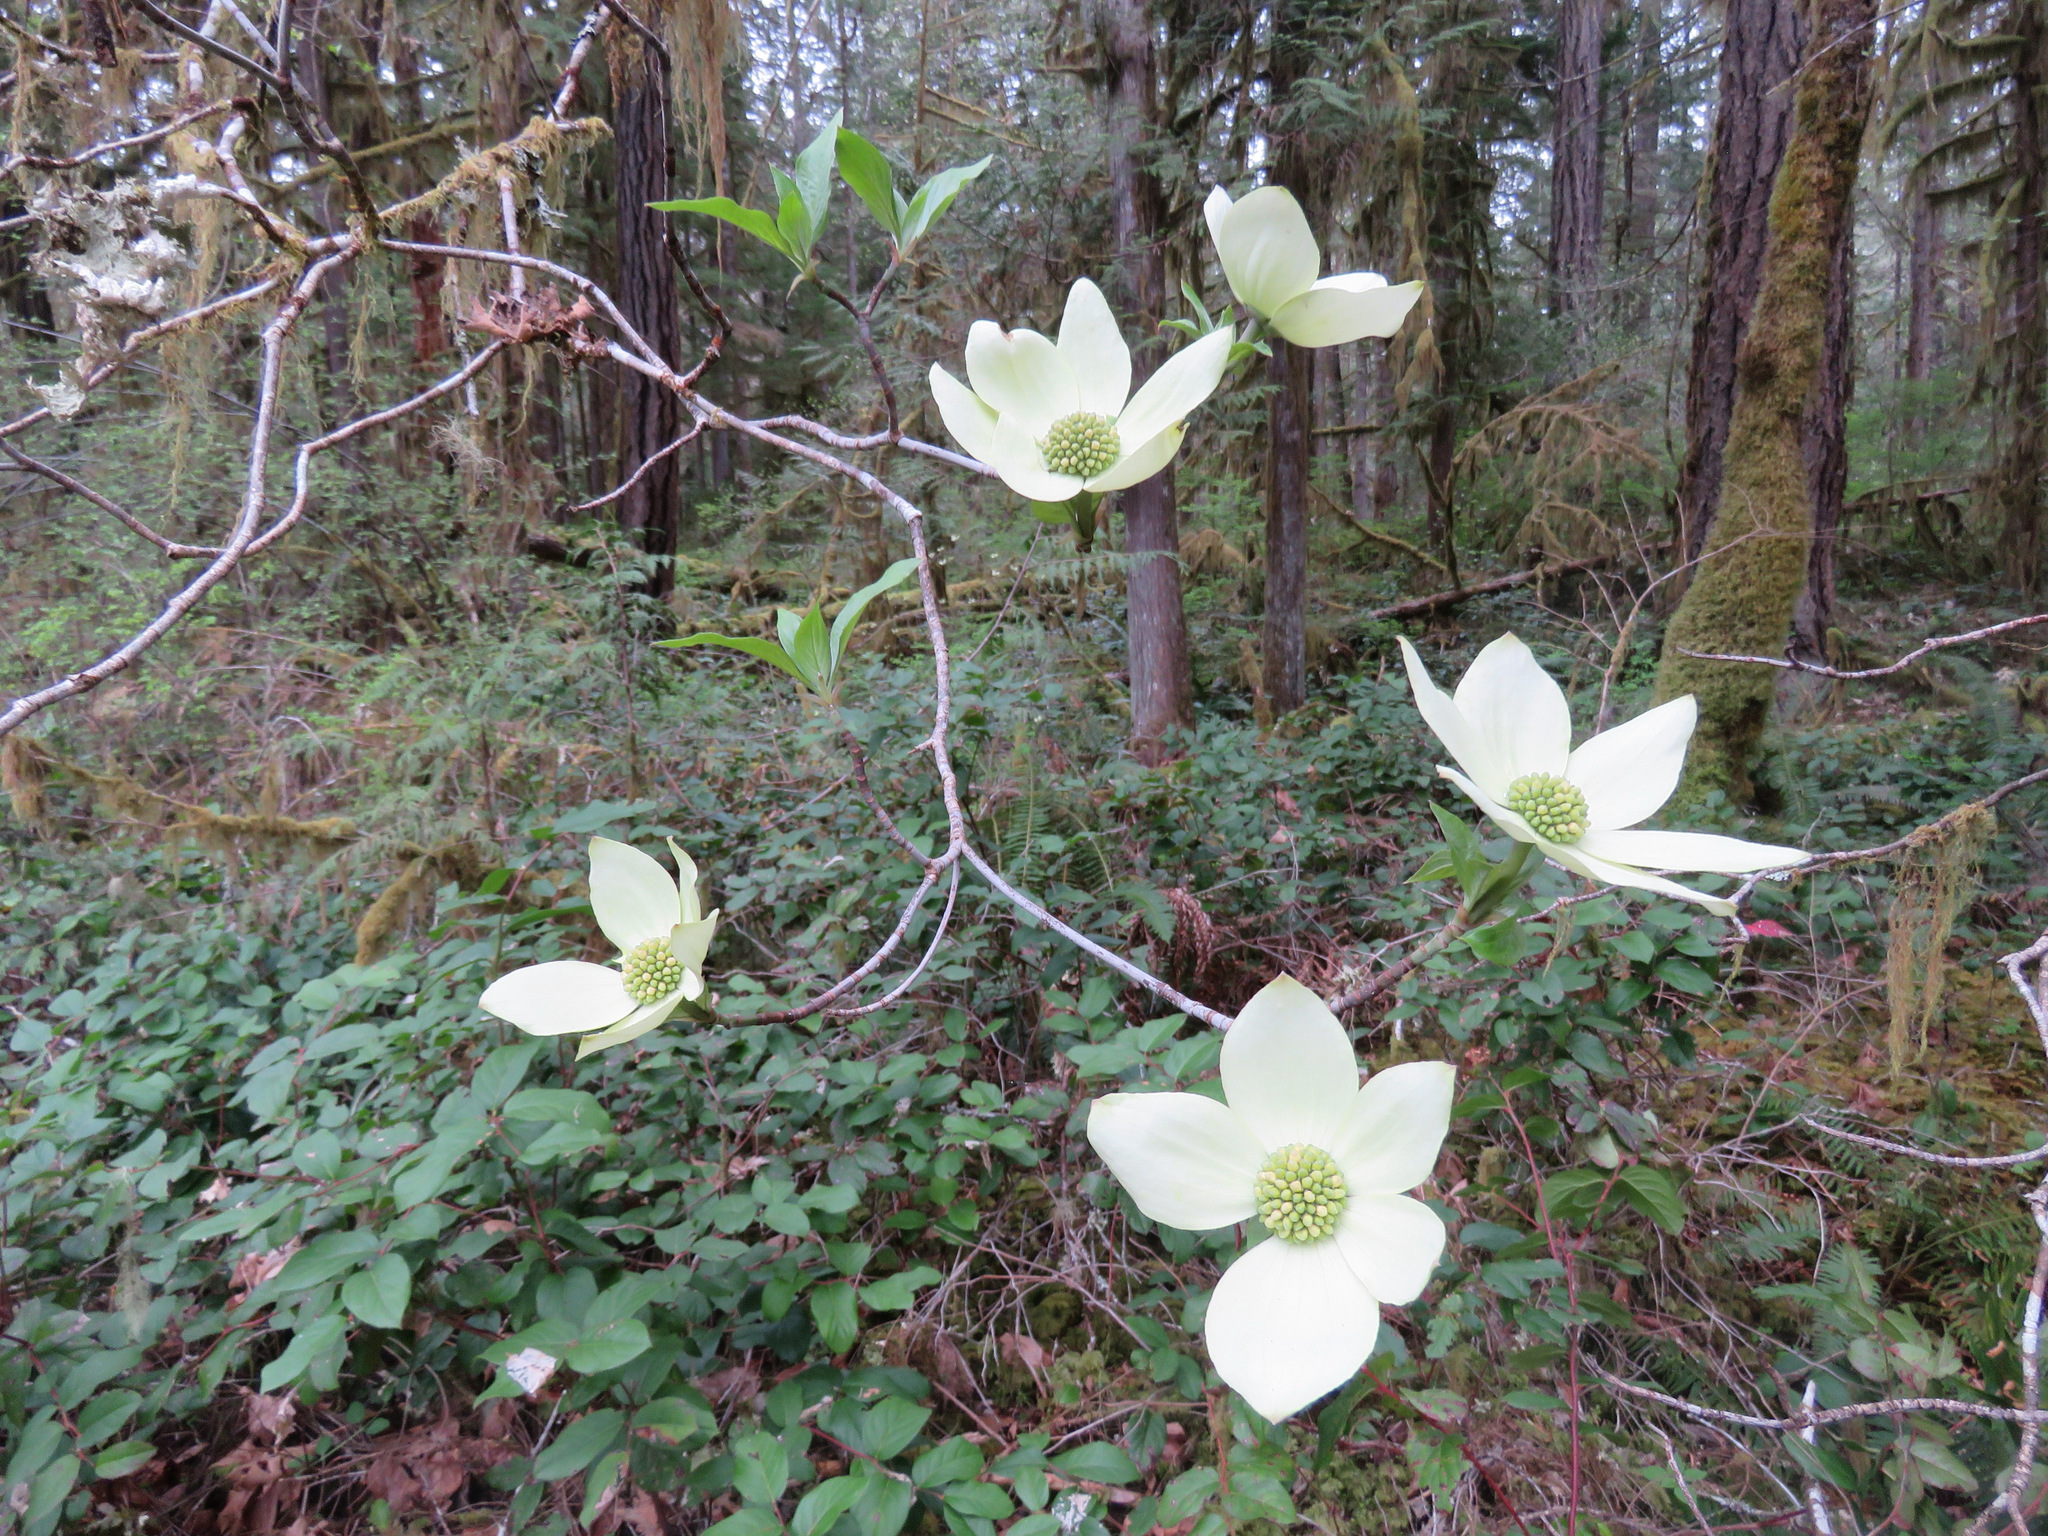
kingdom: Plantae
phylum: Tracheophyta
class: Magnoliopsida
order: Cornales
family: Cornaceae
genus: Cornus
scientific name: Cornus nuttallii
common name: Pacific dogwood
